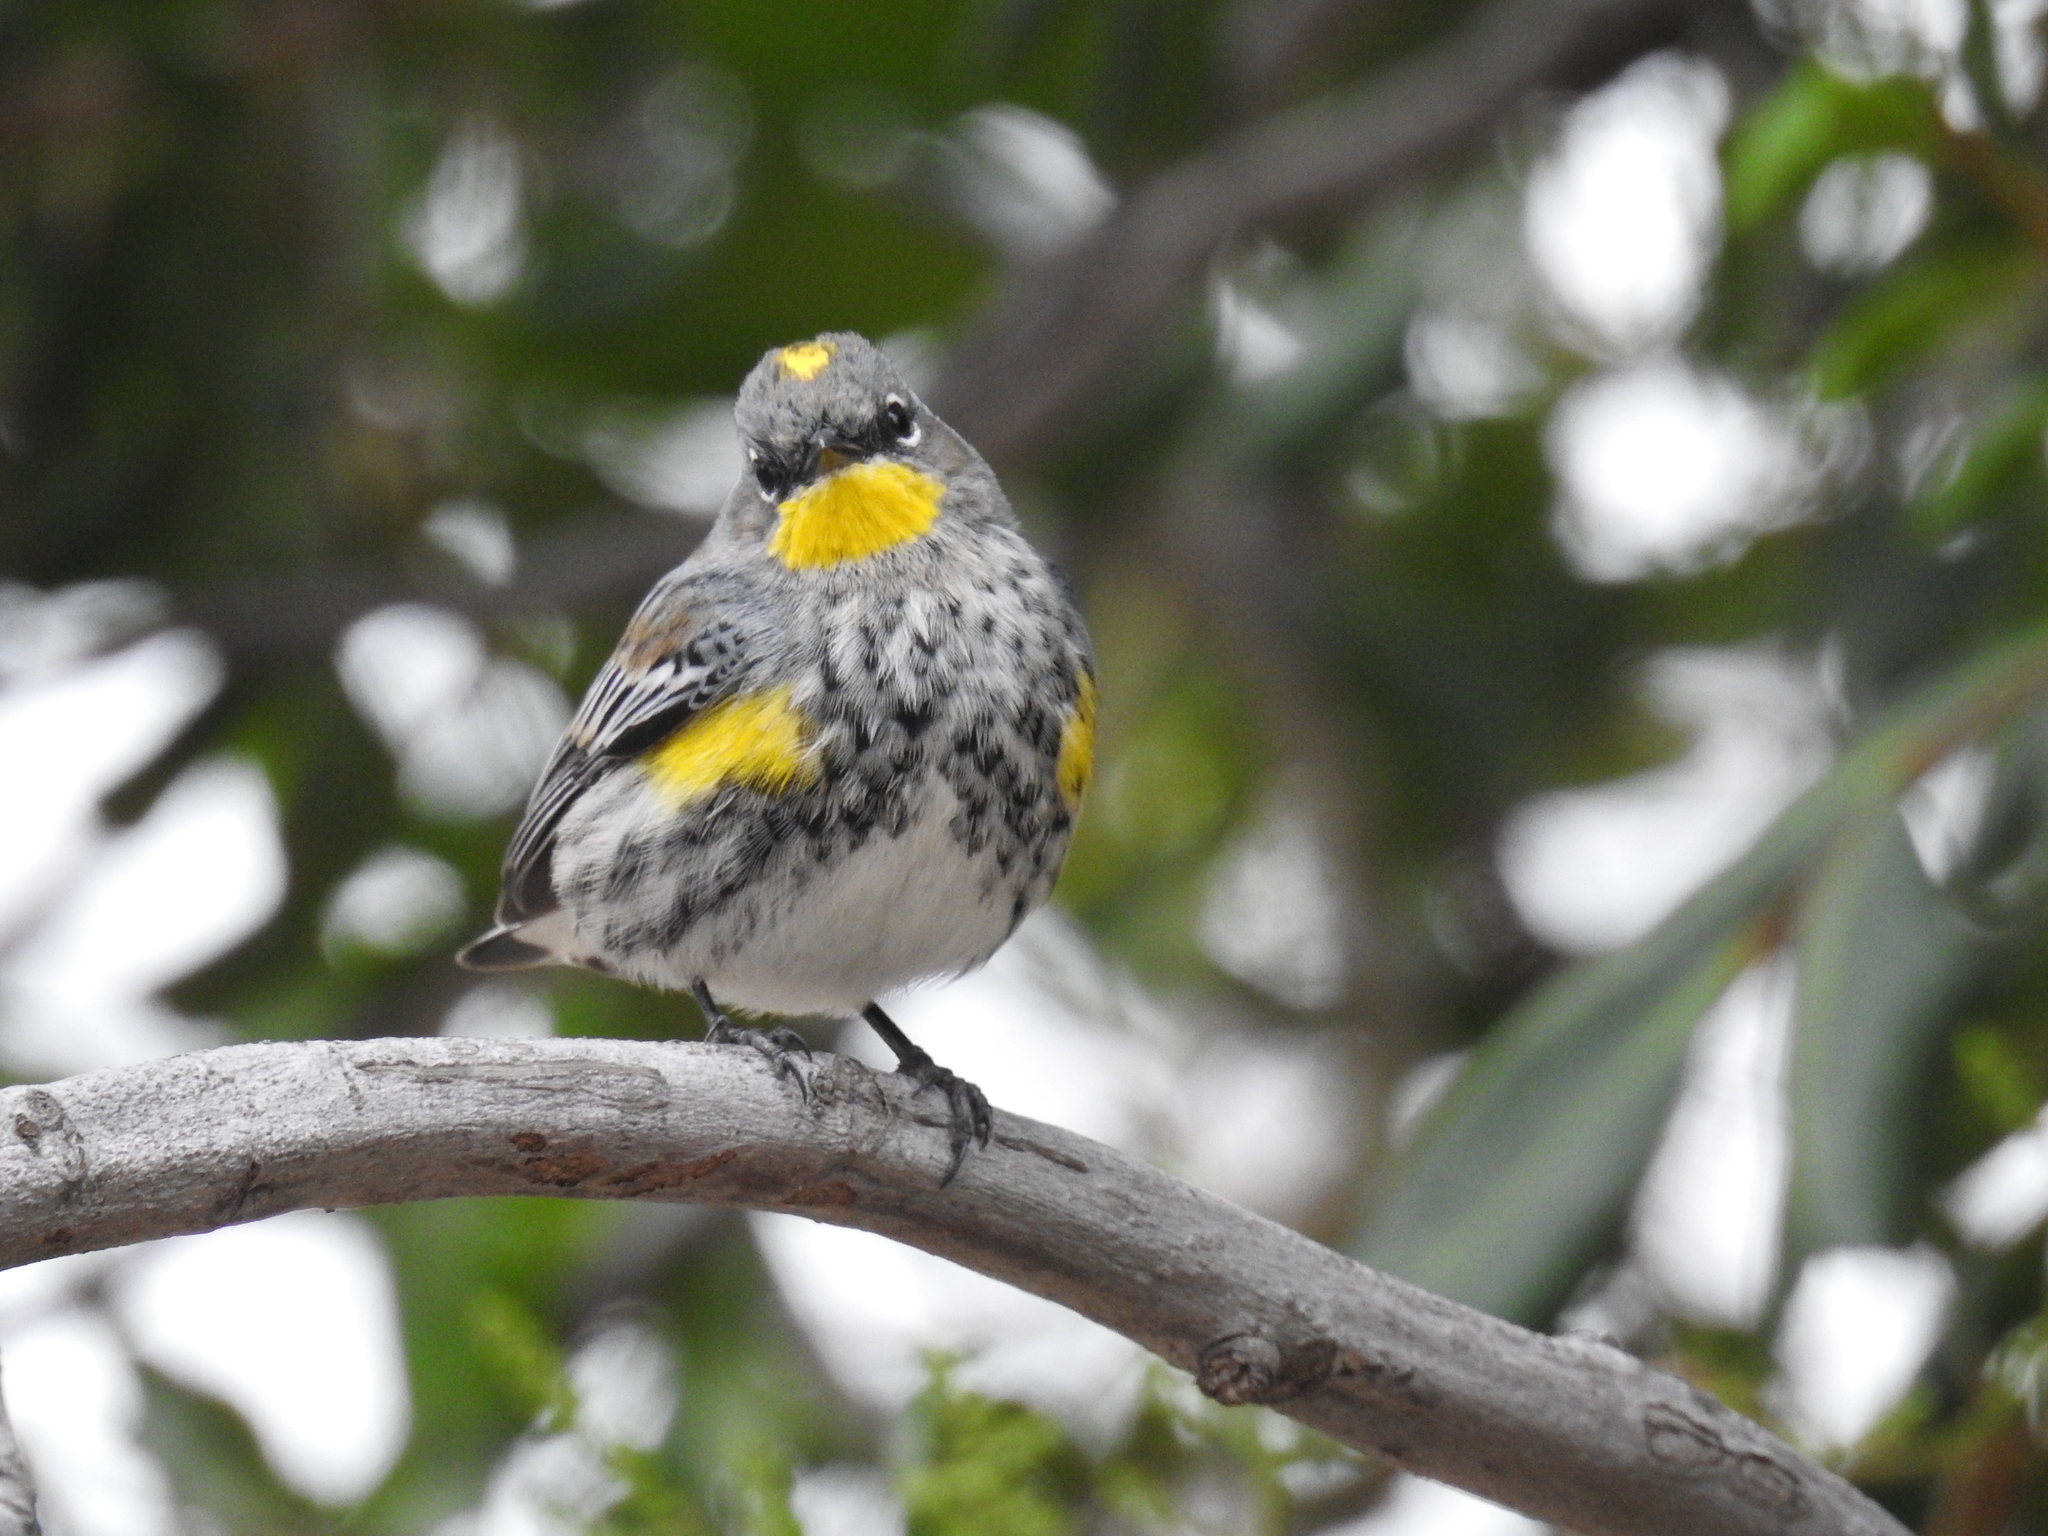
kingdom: Animalia
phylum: Chordata
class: Aves
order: Passeriformes
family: Parulidae
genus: Setophaga
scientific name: Setophaga coronata
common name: Myrtle warbler
